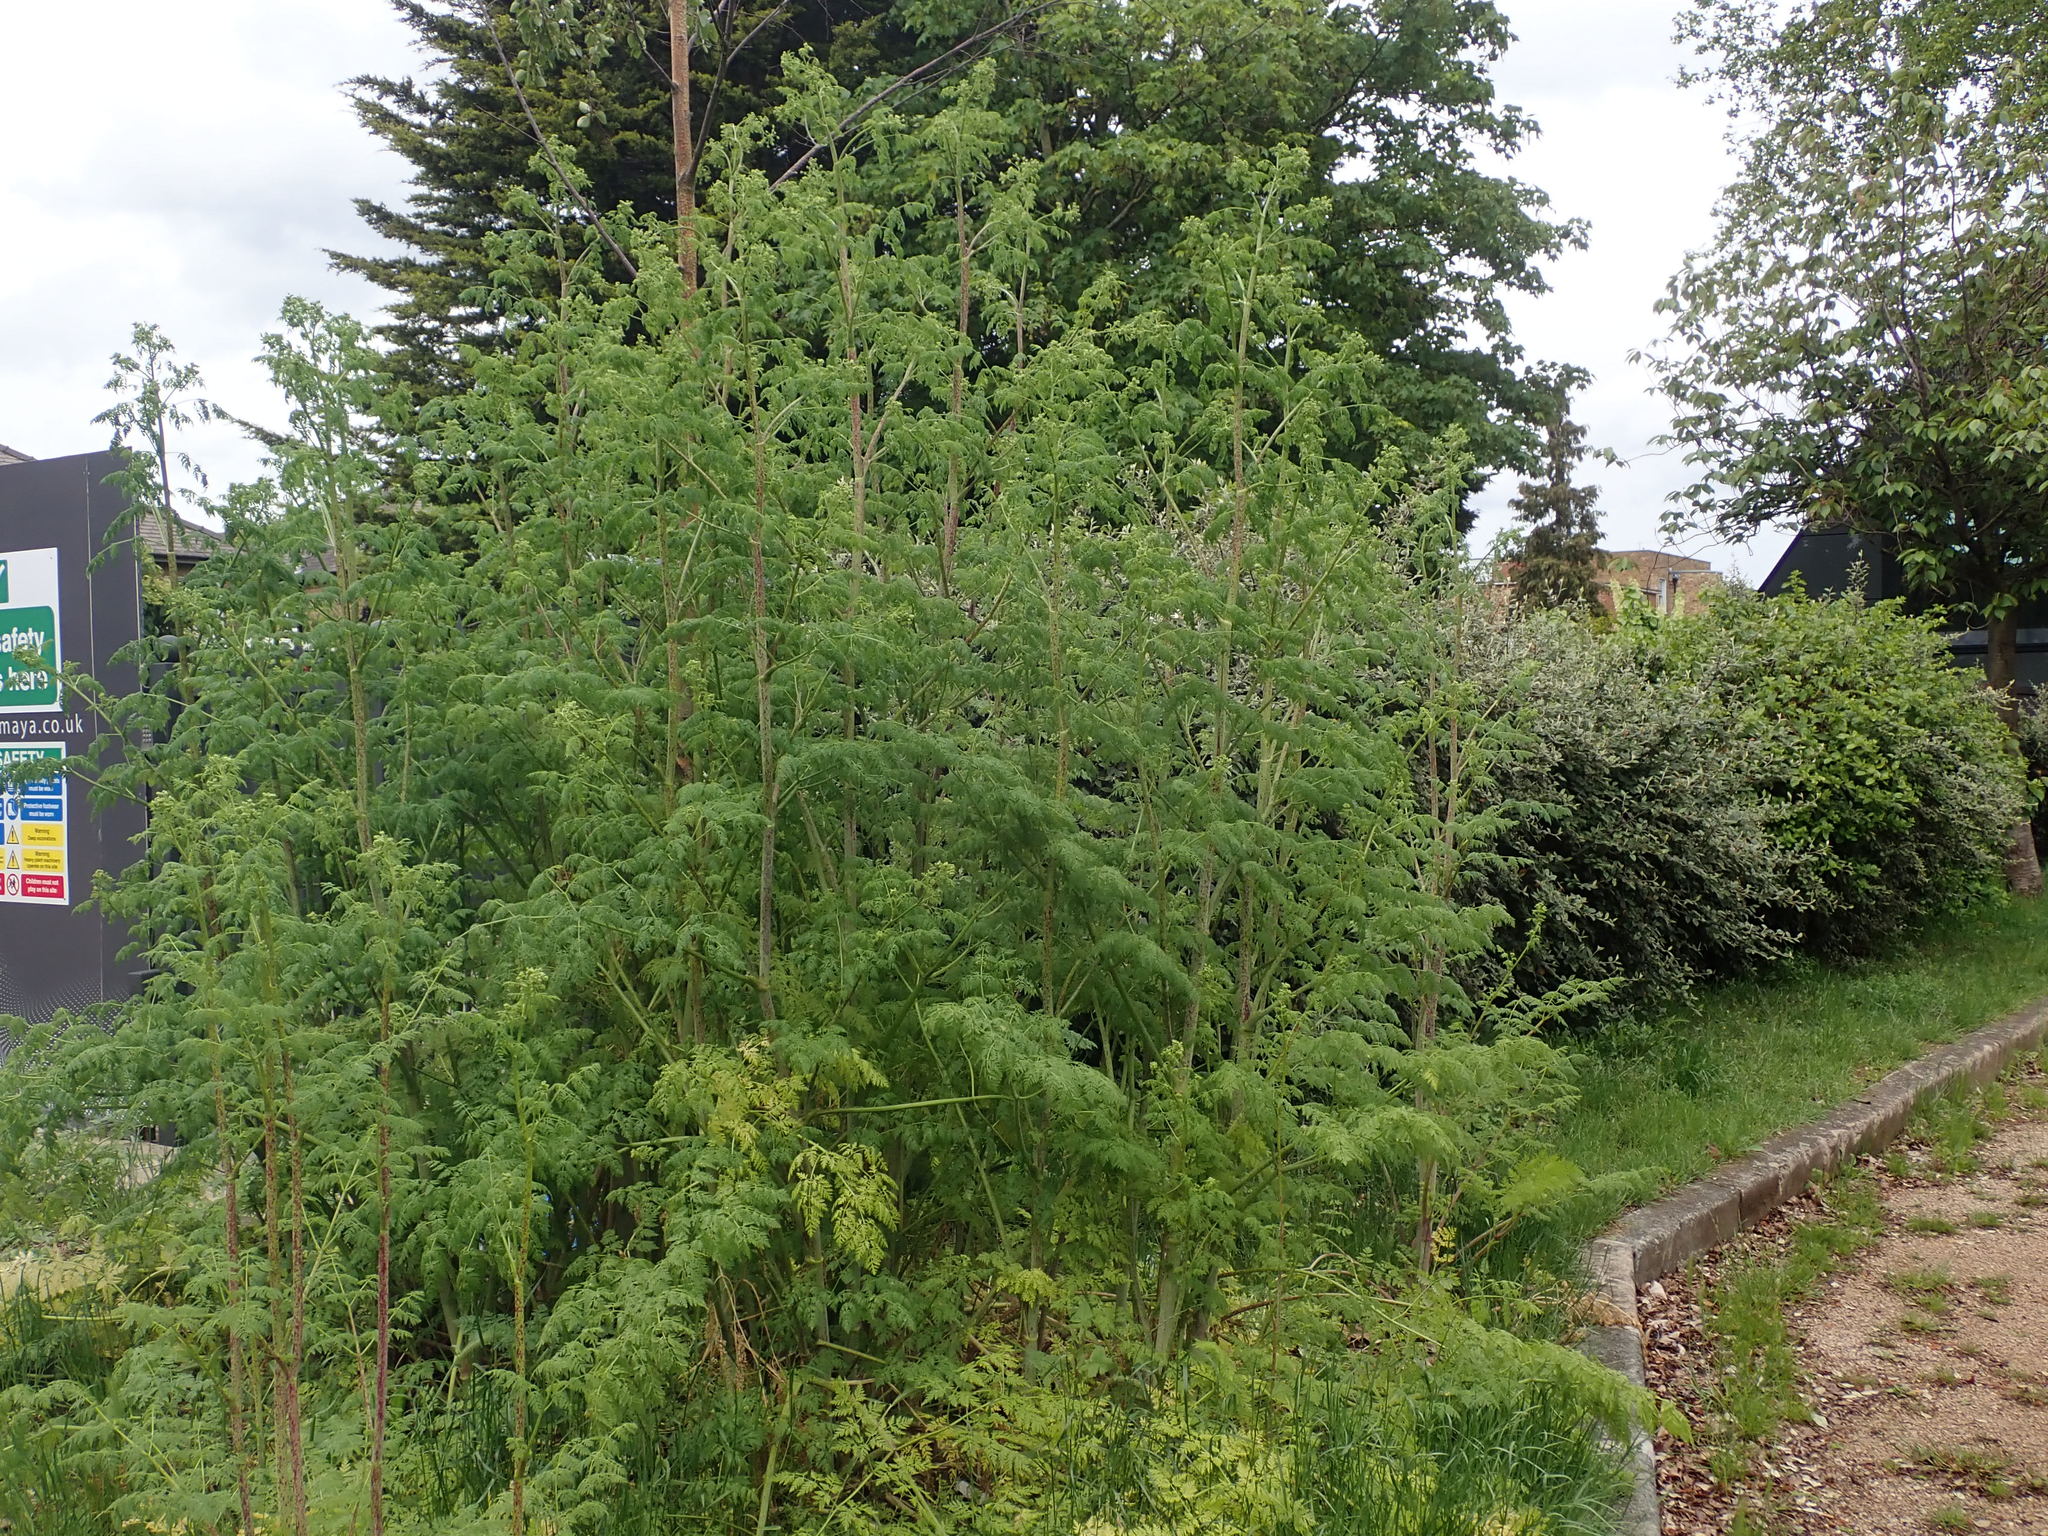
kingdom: Plantae
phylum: Tracheophyta
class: Magnoliopsida
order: Apiales
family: Apiaceae
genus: Conium
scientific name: Conium maculatum
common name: Hemlock
